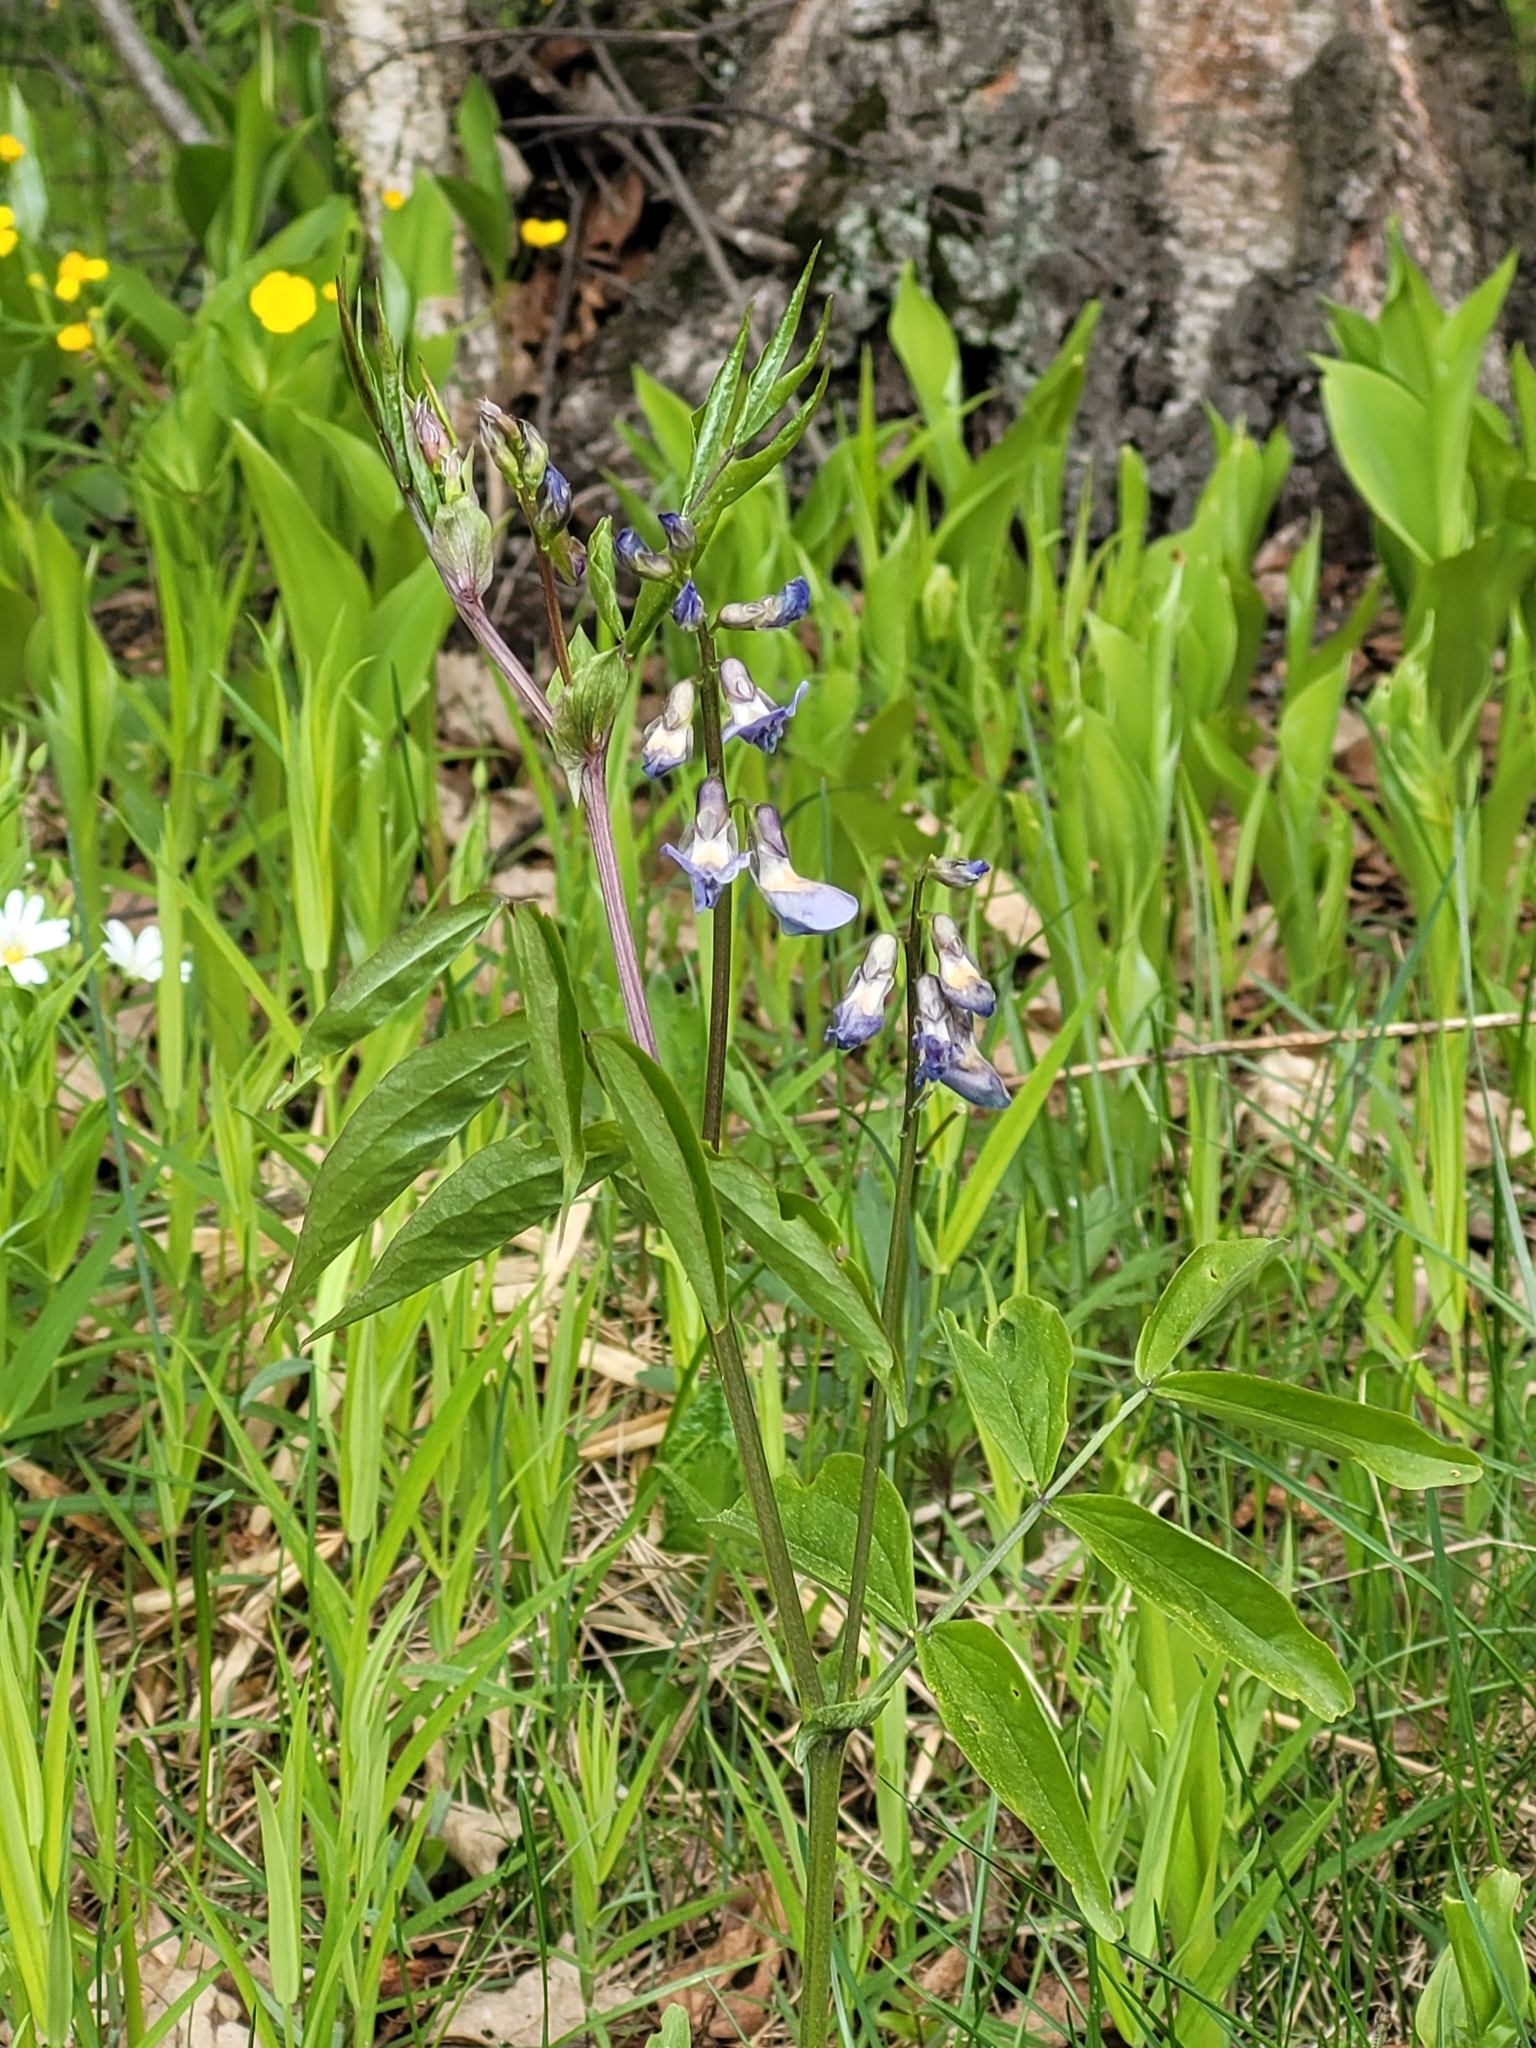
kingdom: Plantae
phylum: Tracheophyta
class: Magnoliopsida
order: Fabales
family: Fabaceae
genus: Lathyrus
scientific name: Lathyrus vernus
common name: Spring pea
